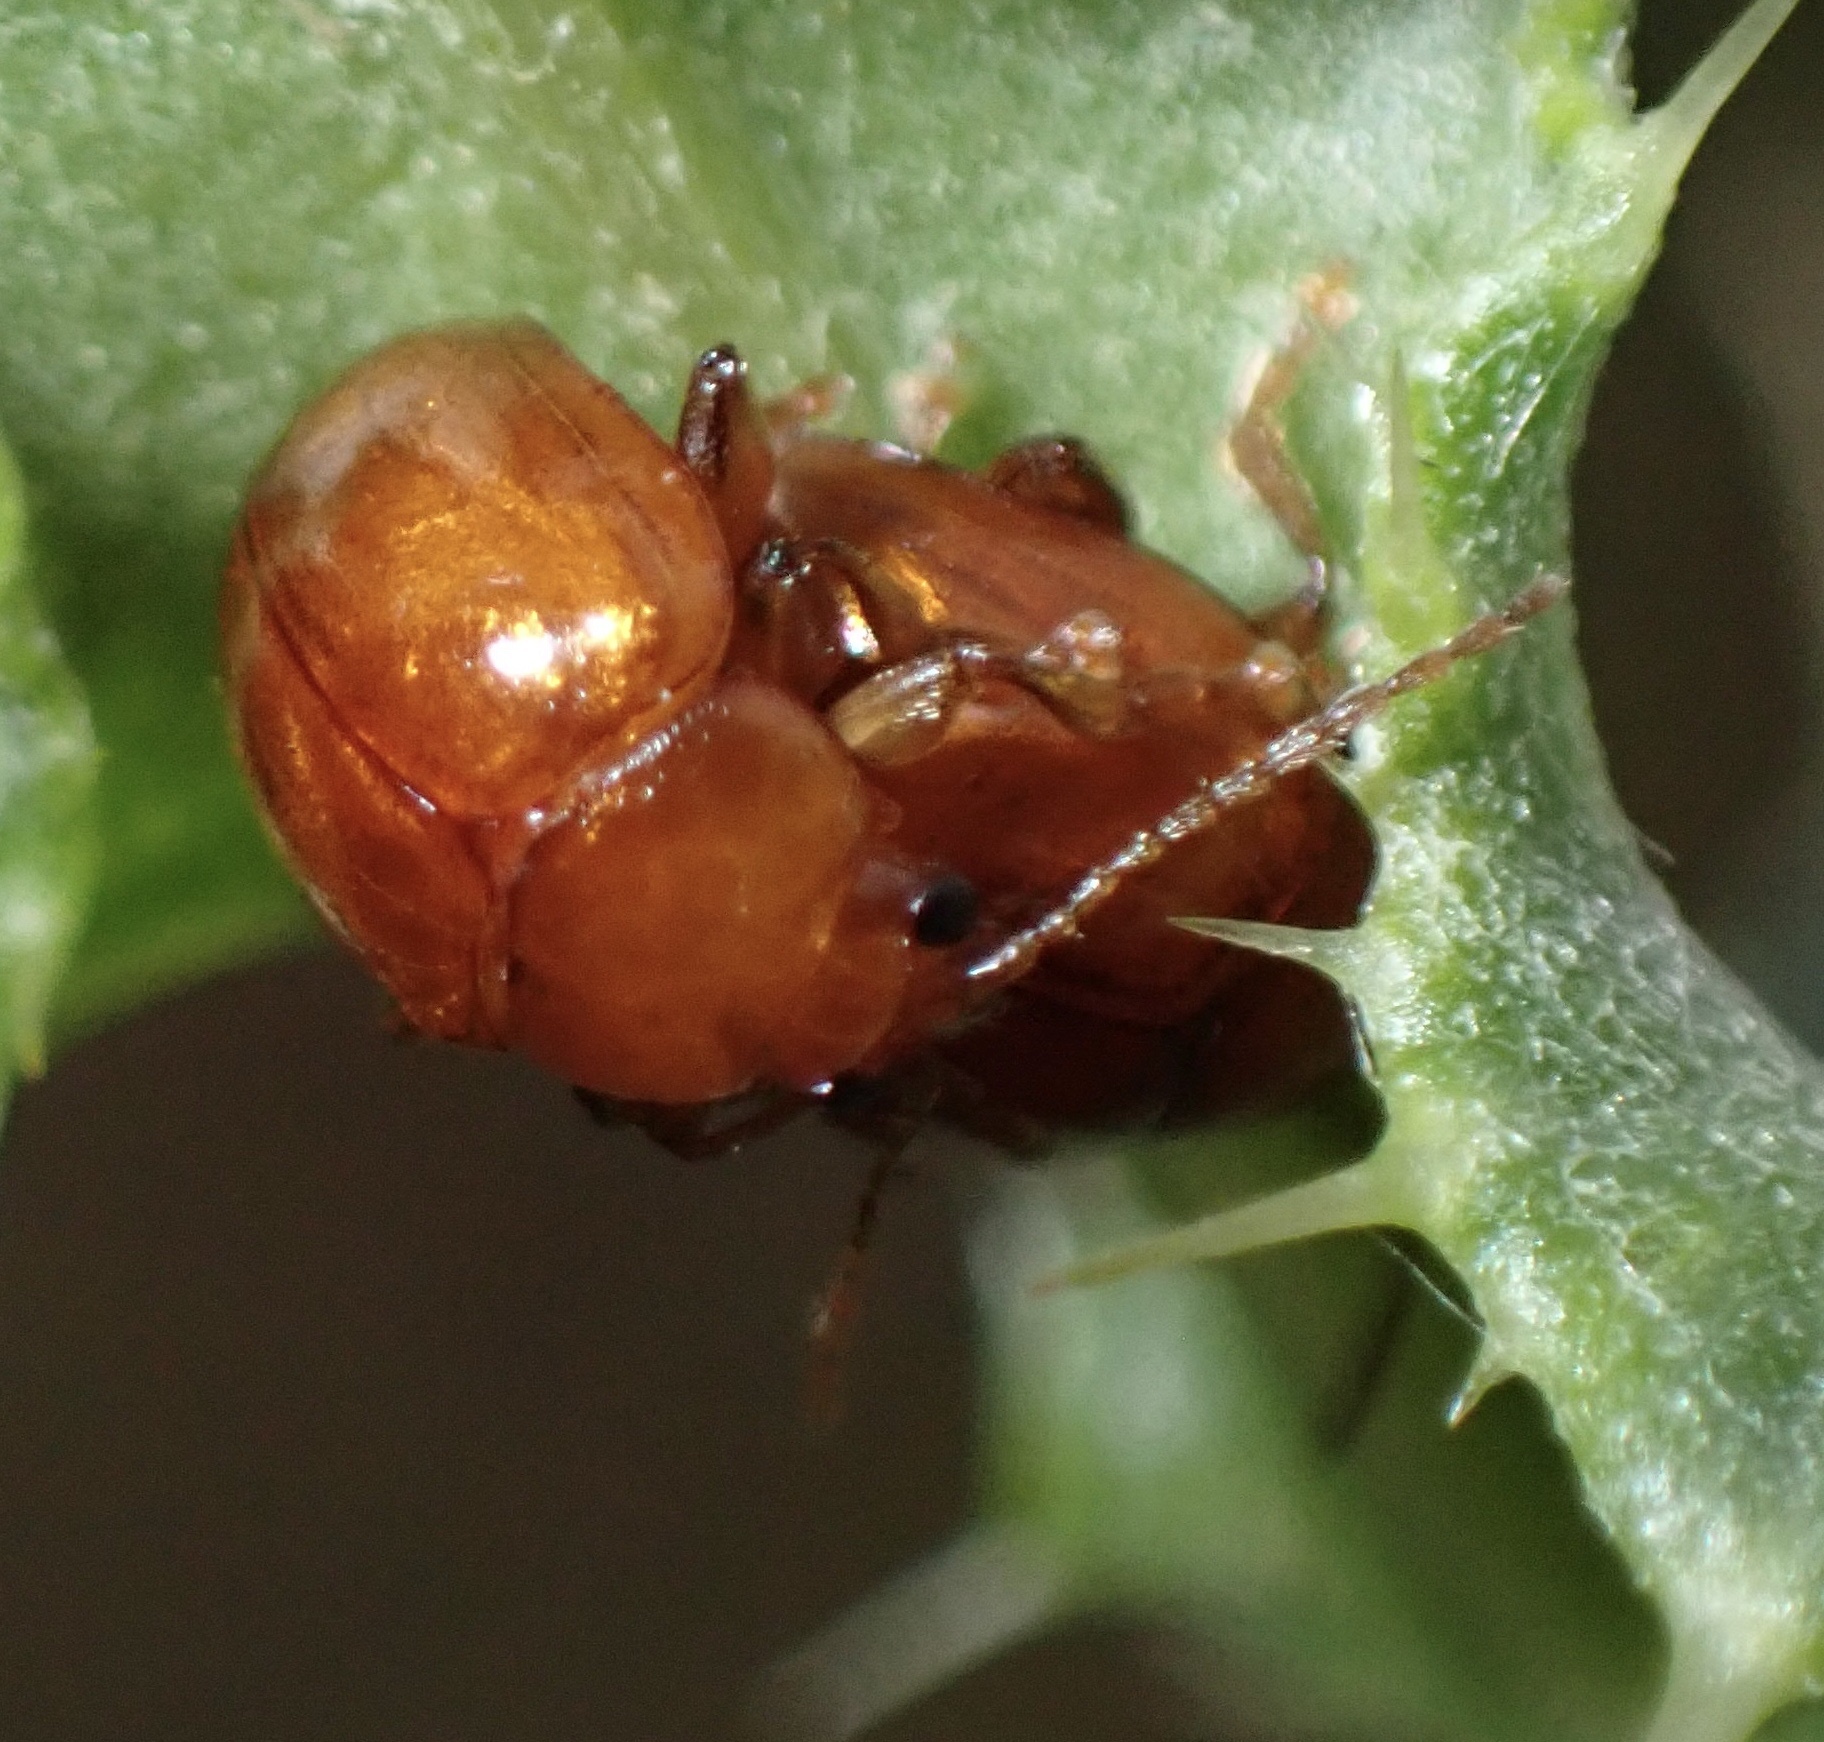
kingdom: Animalia
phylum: Arthropoda
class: Insecta
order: Coleoptera
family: Chrysomelidae
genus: Pistosia
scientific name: Pistosia testacea
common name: Leaf beetle
